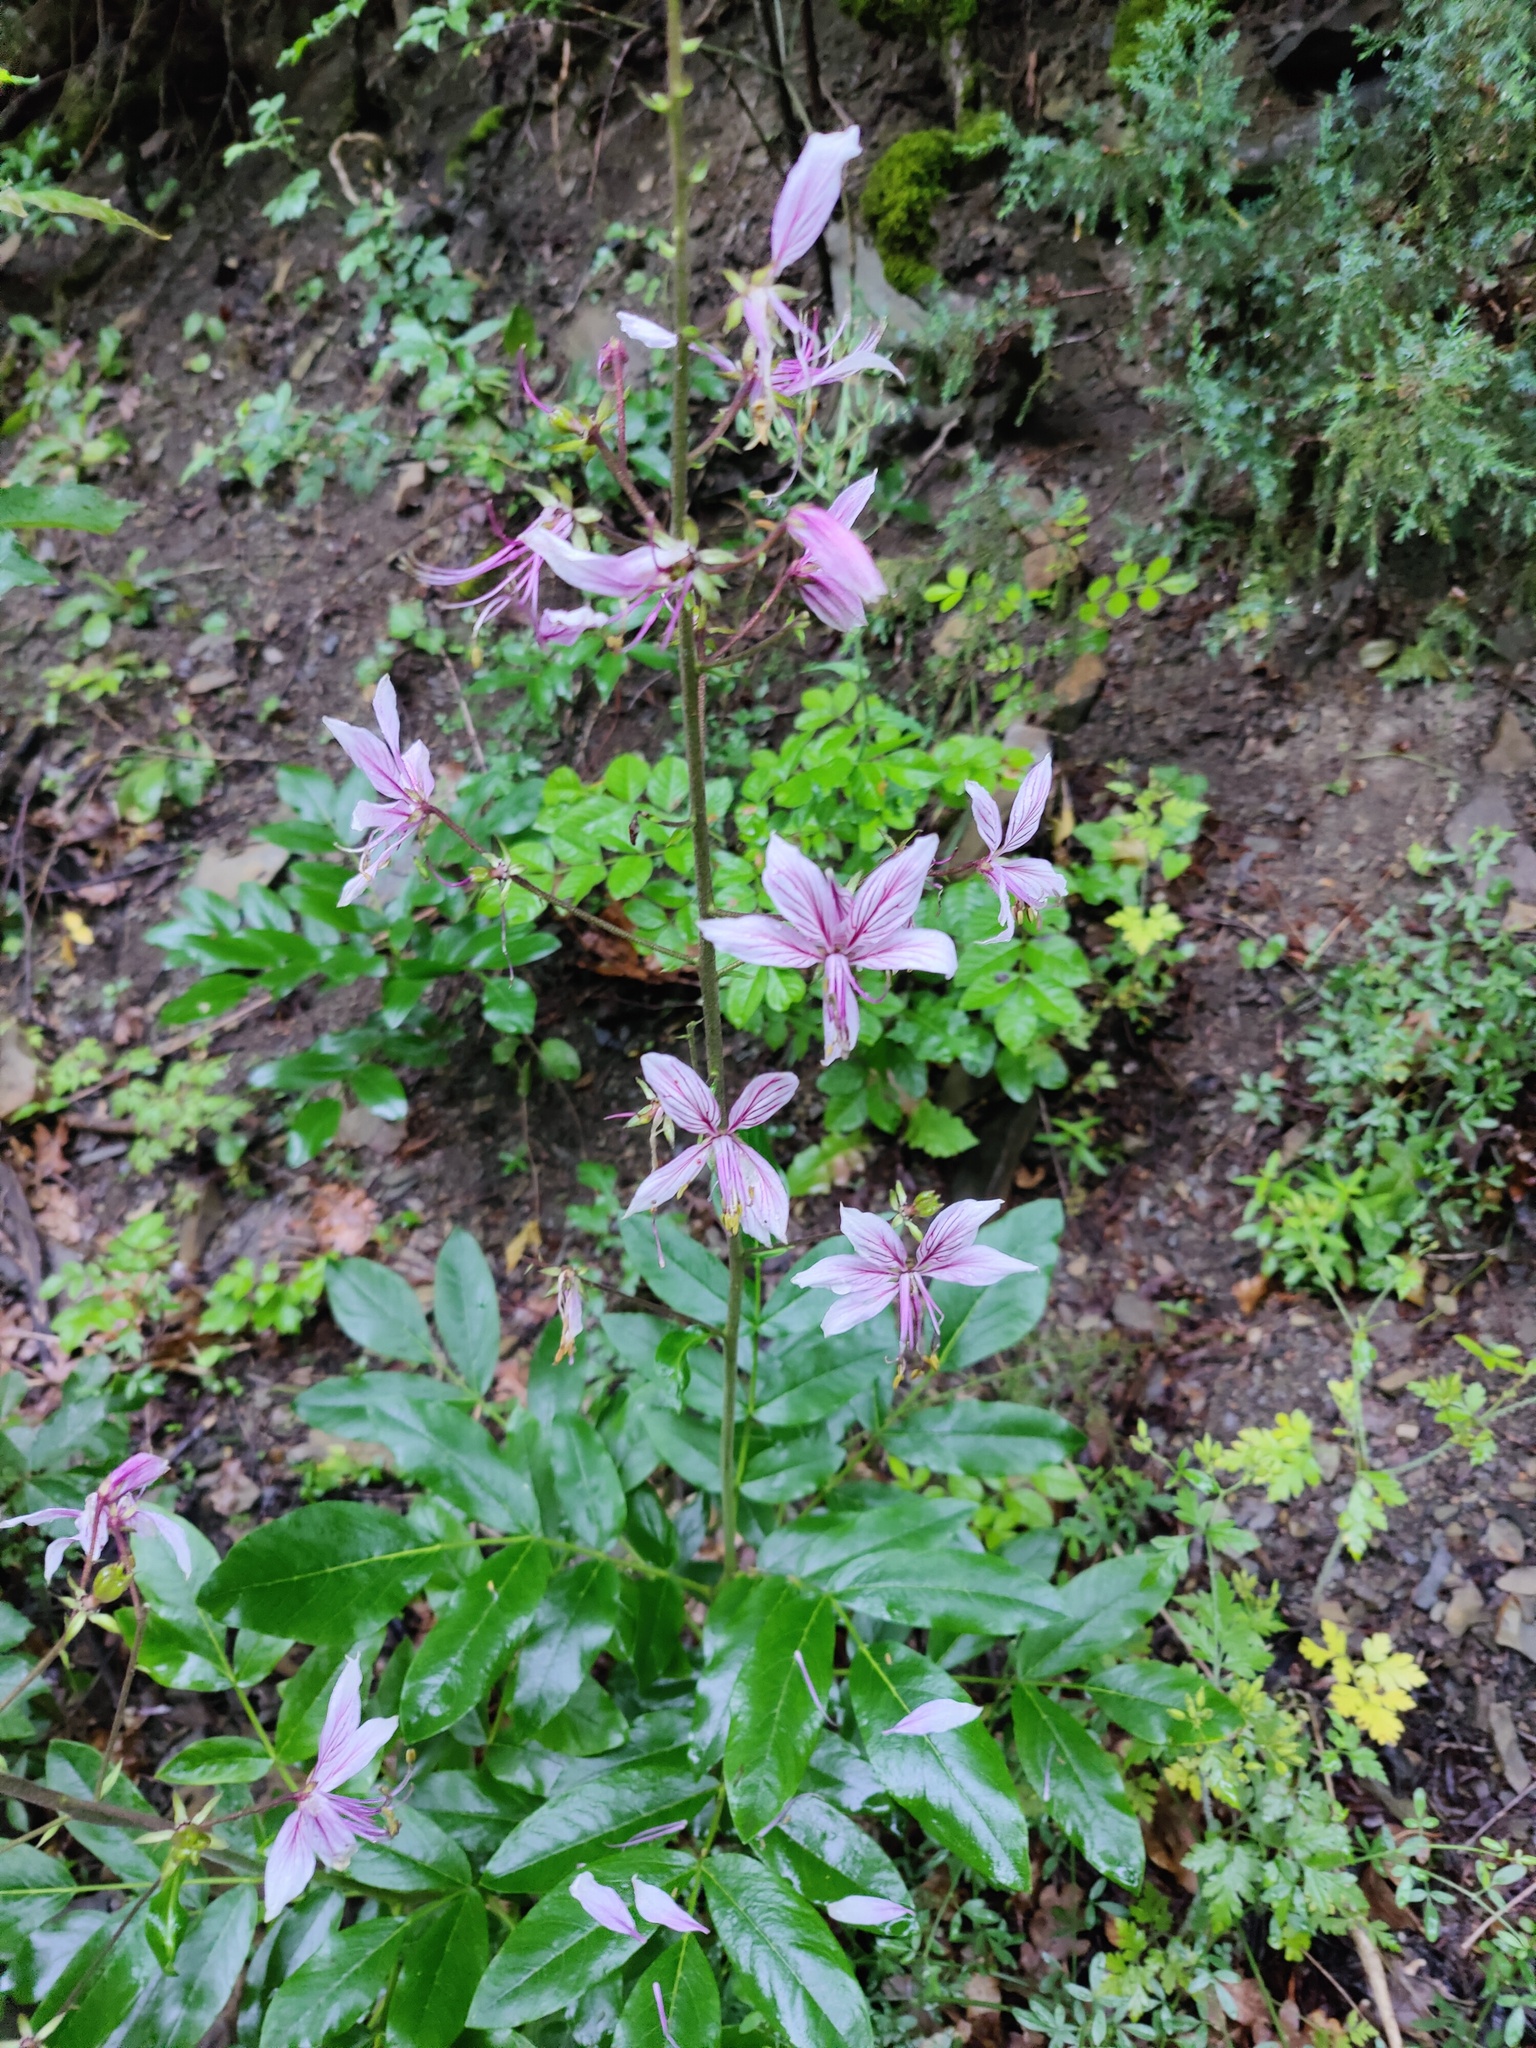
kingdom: Plantae
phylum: Tracheophyta
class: Magnoliopsida
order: Sapindales
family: Rutaceae
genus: Dictamnus
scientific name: Dictamnus albus
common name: Gasplant
